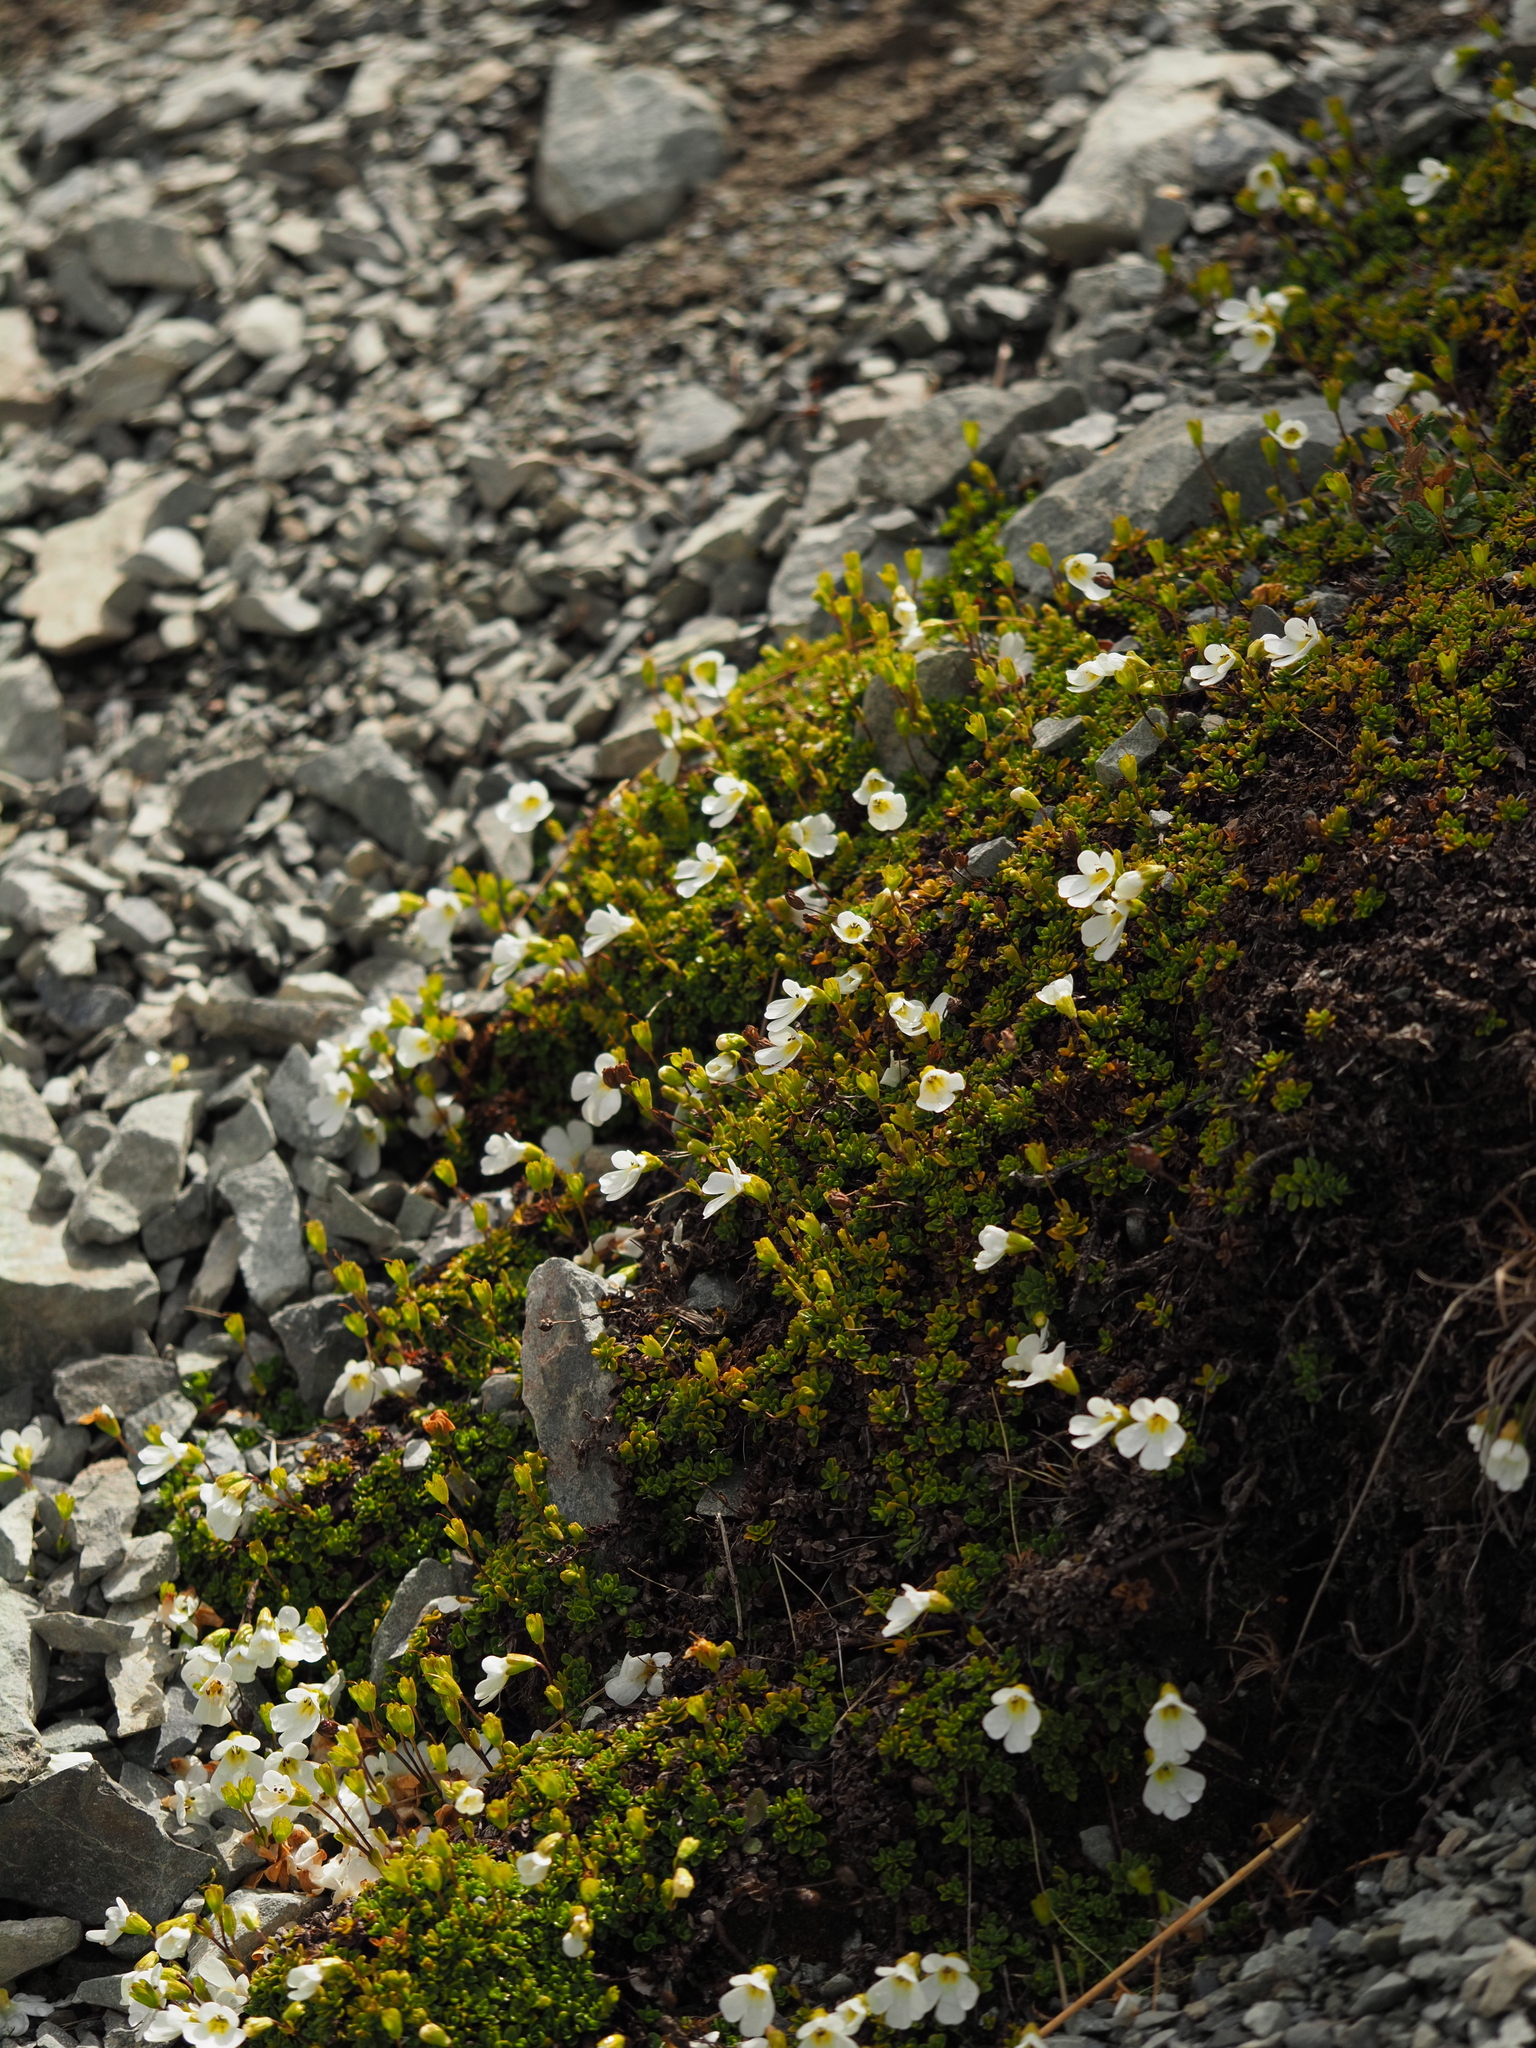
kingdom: Plantae
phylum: Tracheophyta
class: Magnoliopsida
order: Lamiales
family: Plantaginaceae
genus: Ourisia
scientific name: Ourisia caespitosa
